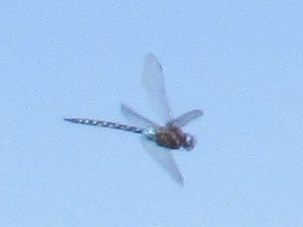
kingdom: Animalia
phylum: Arthropoda
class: Insecta
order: Odonata
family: Aeshnidae
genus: Rhionaeschna
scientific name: Rhionaeschna multicolor
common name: Blue-eyed darner
